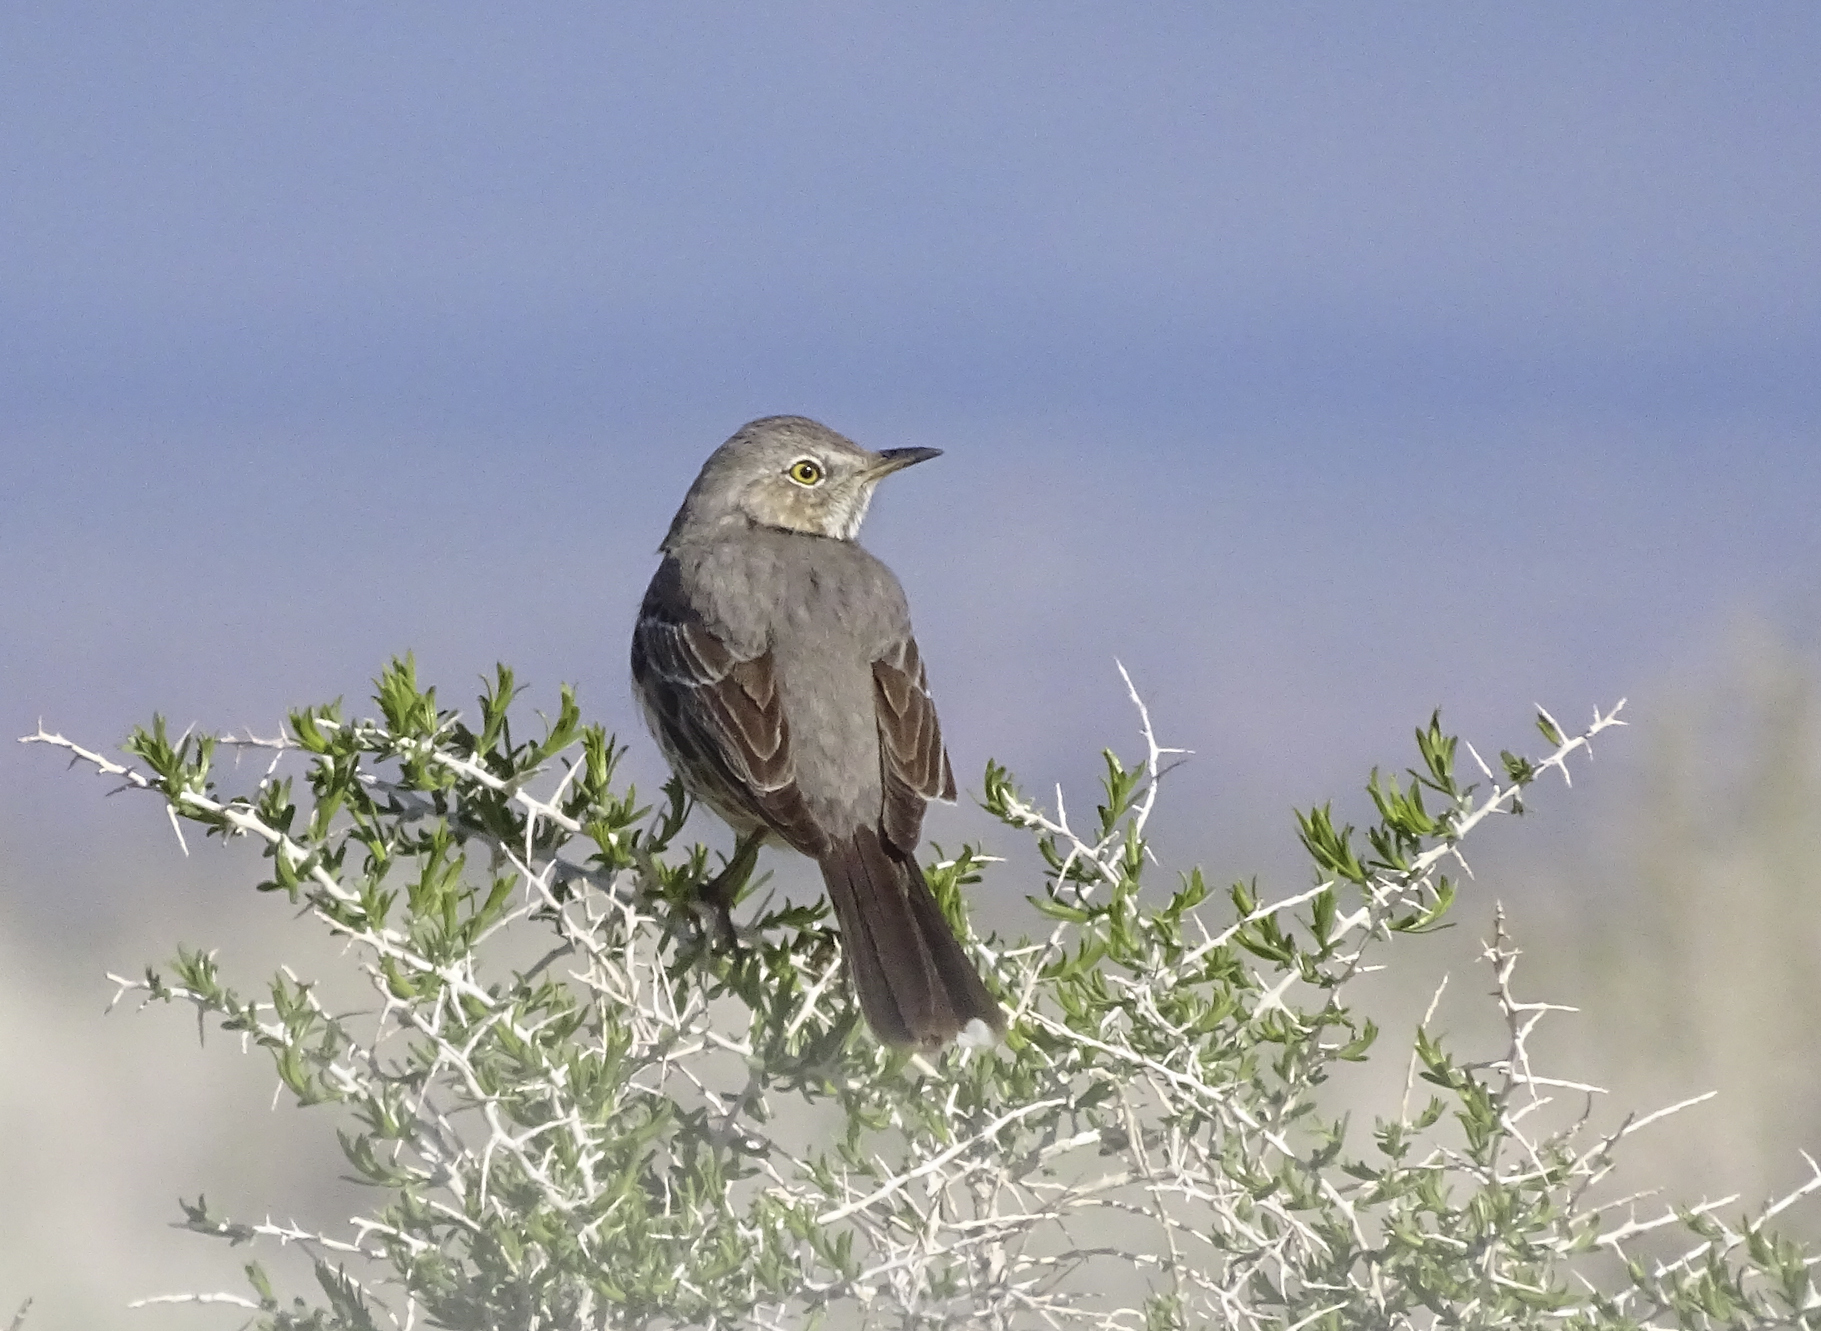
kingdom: Animalia
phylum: Chordata
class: Aves
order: Passeriformes
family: Mimidae
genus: Oreoscoptes
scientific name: Oreoscoptes montanus
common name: Sage thrasher
